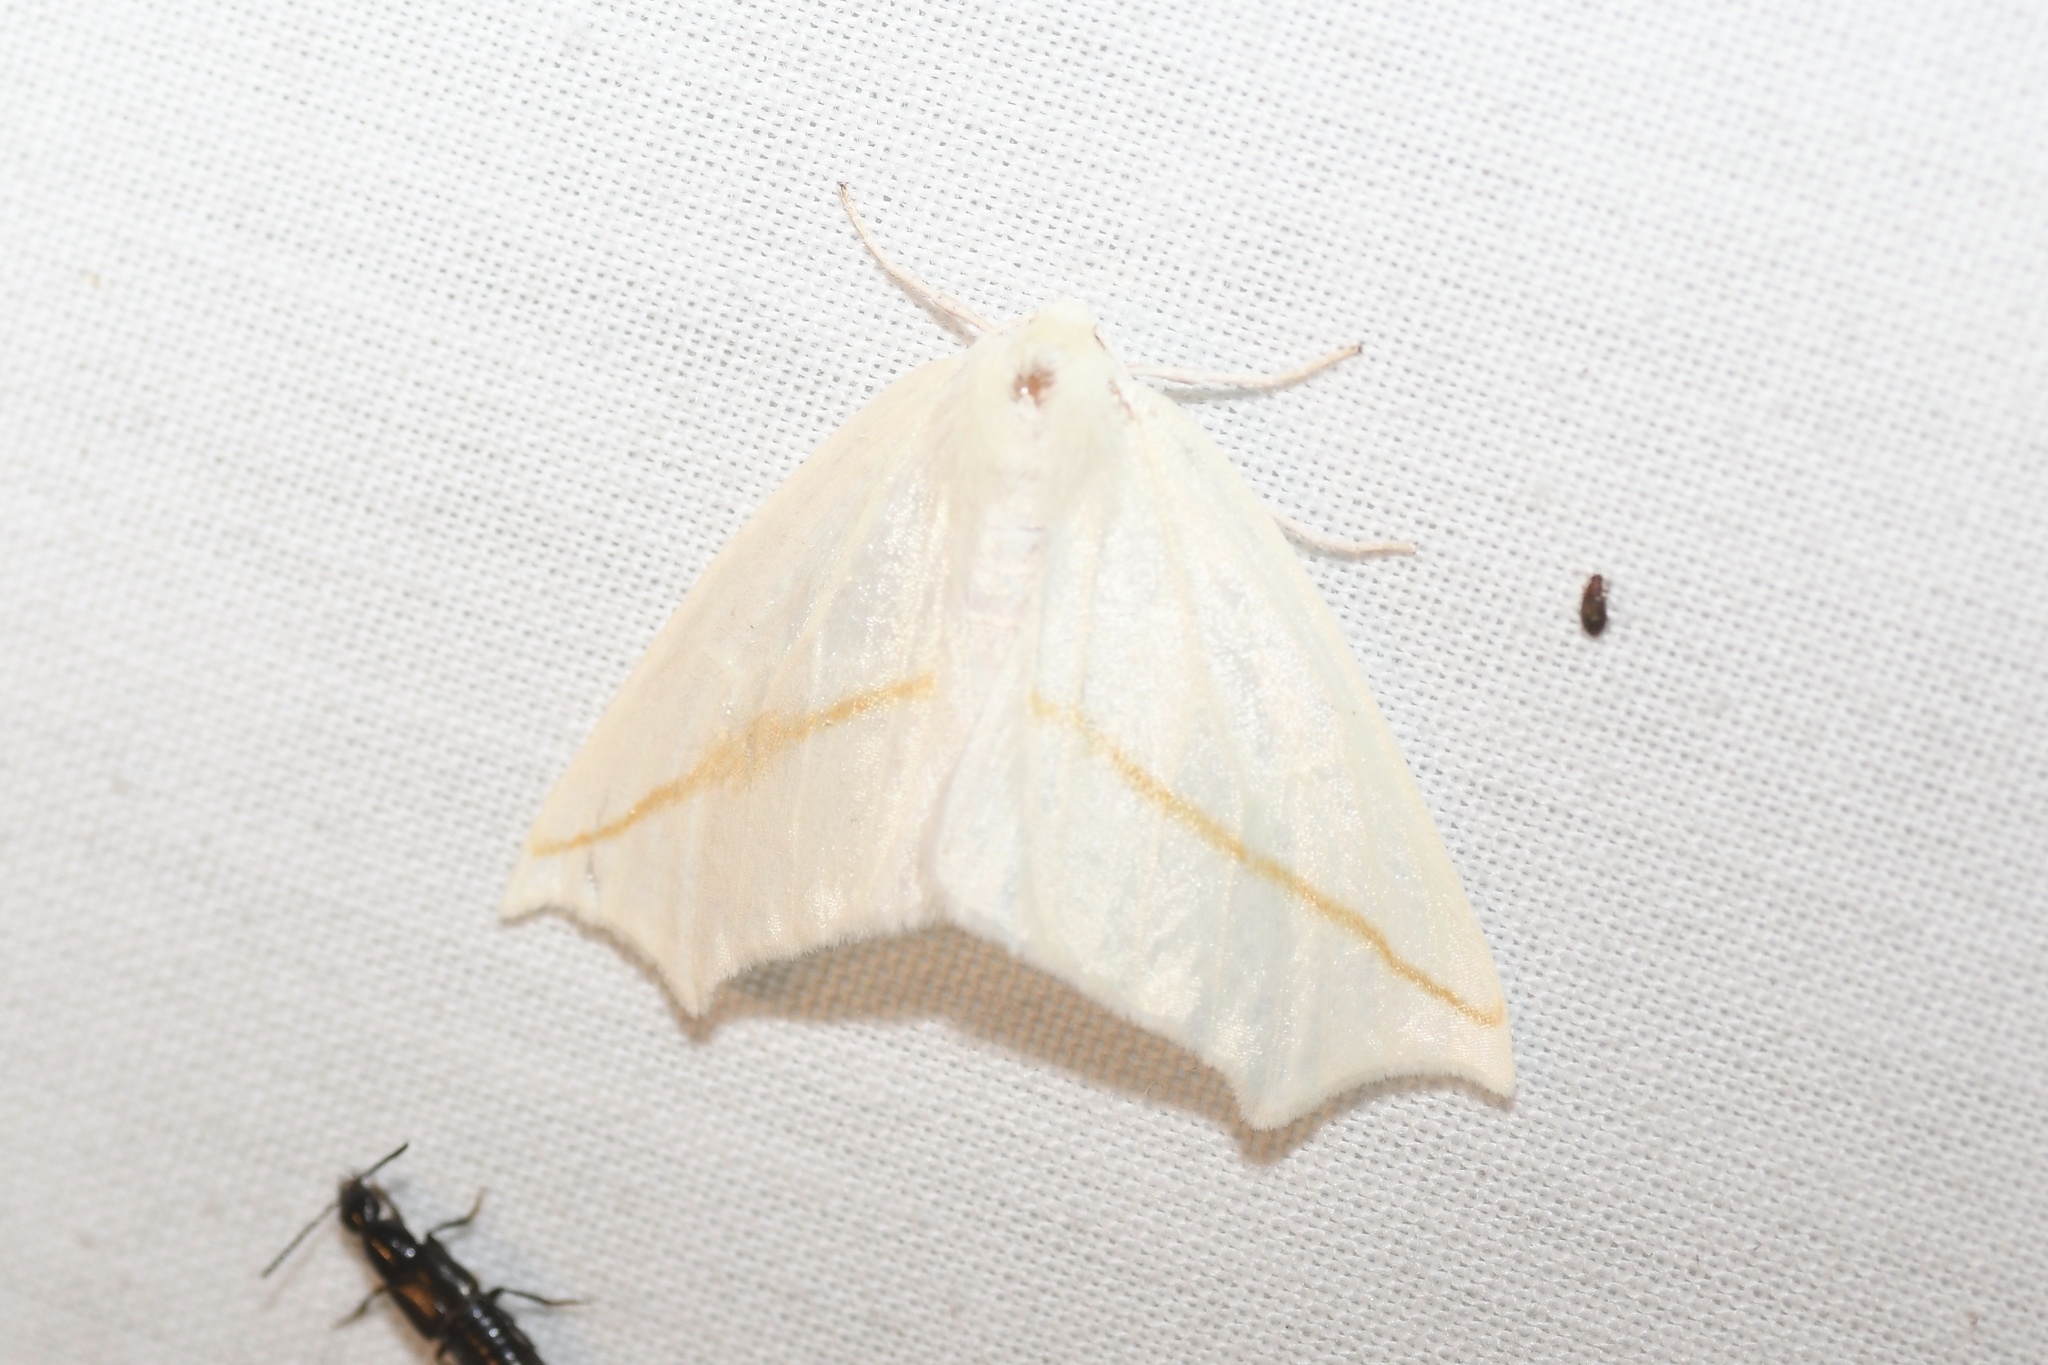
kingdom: Animalia
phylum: Arthropoda
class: Insecta
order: Lepidoptera
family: Geometridae
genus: Tetracis
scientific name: Tetracis cachexiata
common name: White slant-line
